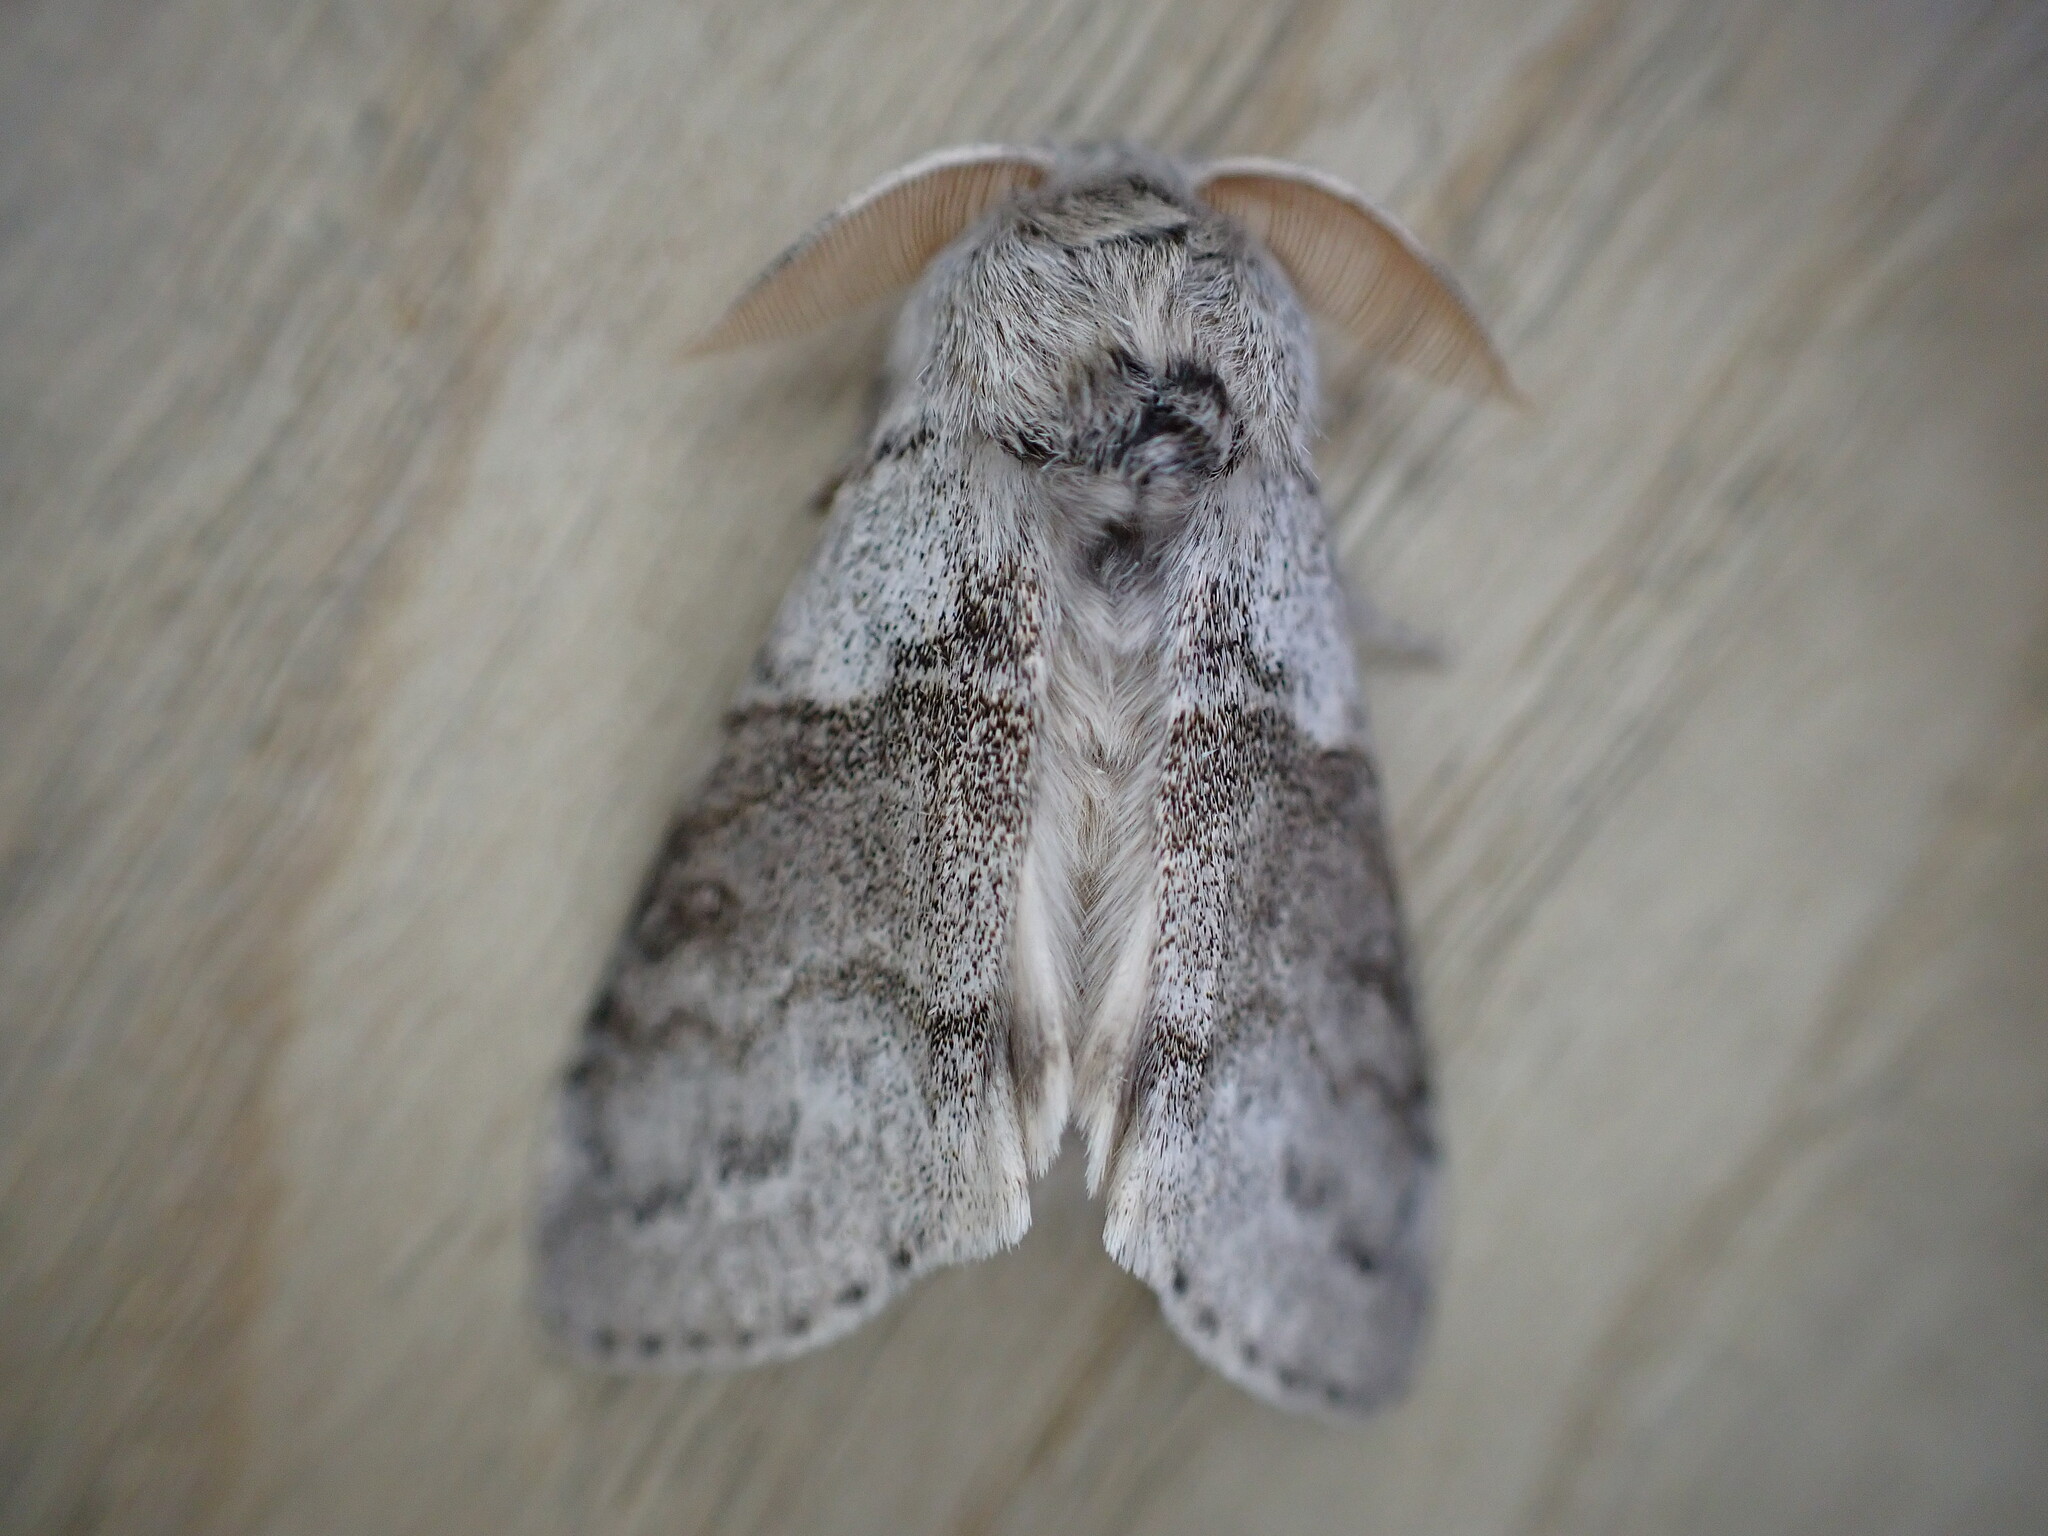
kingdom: Animalia
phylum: Arthropoda
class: Insecta
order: Lepidoptera
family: Erebidae
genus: Calliteara
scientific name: Calliteara pudibunda
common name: Pale tussock
